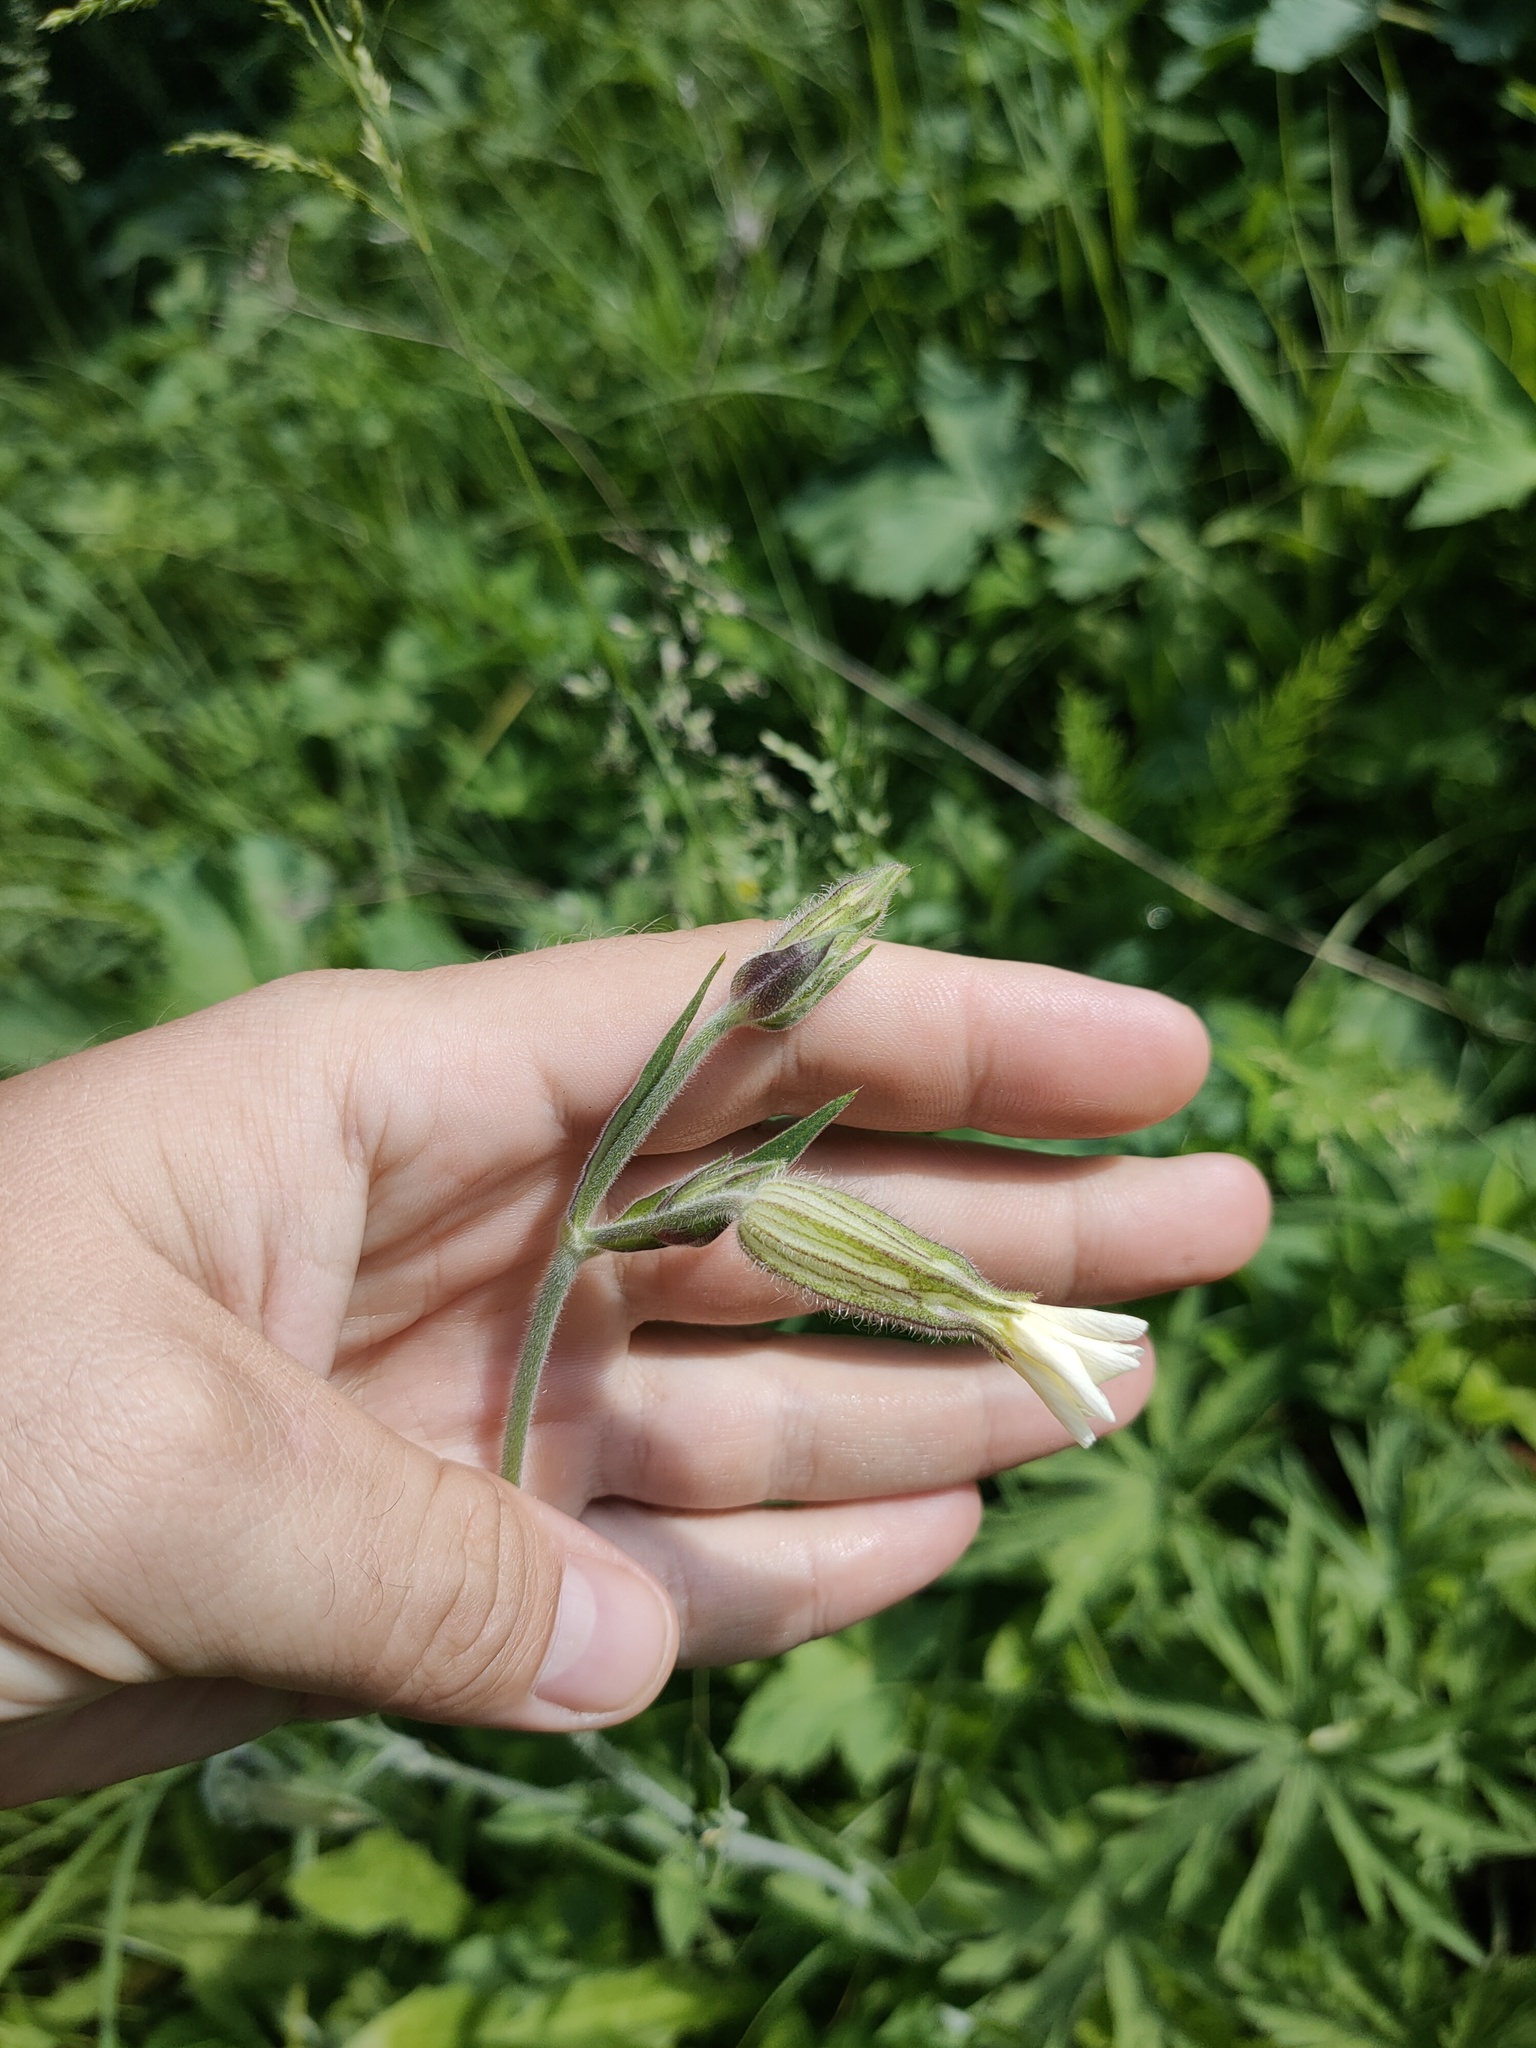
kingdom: Plantae
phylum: Tracheophyta
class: Magnoliopsida
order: Caryophyllales
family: Caryophyllaceae
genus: Silene
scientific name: Silene latifolia
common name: White campion
